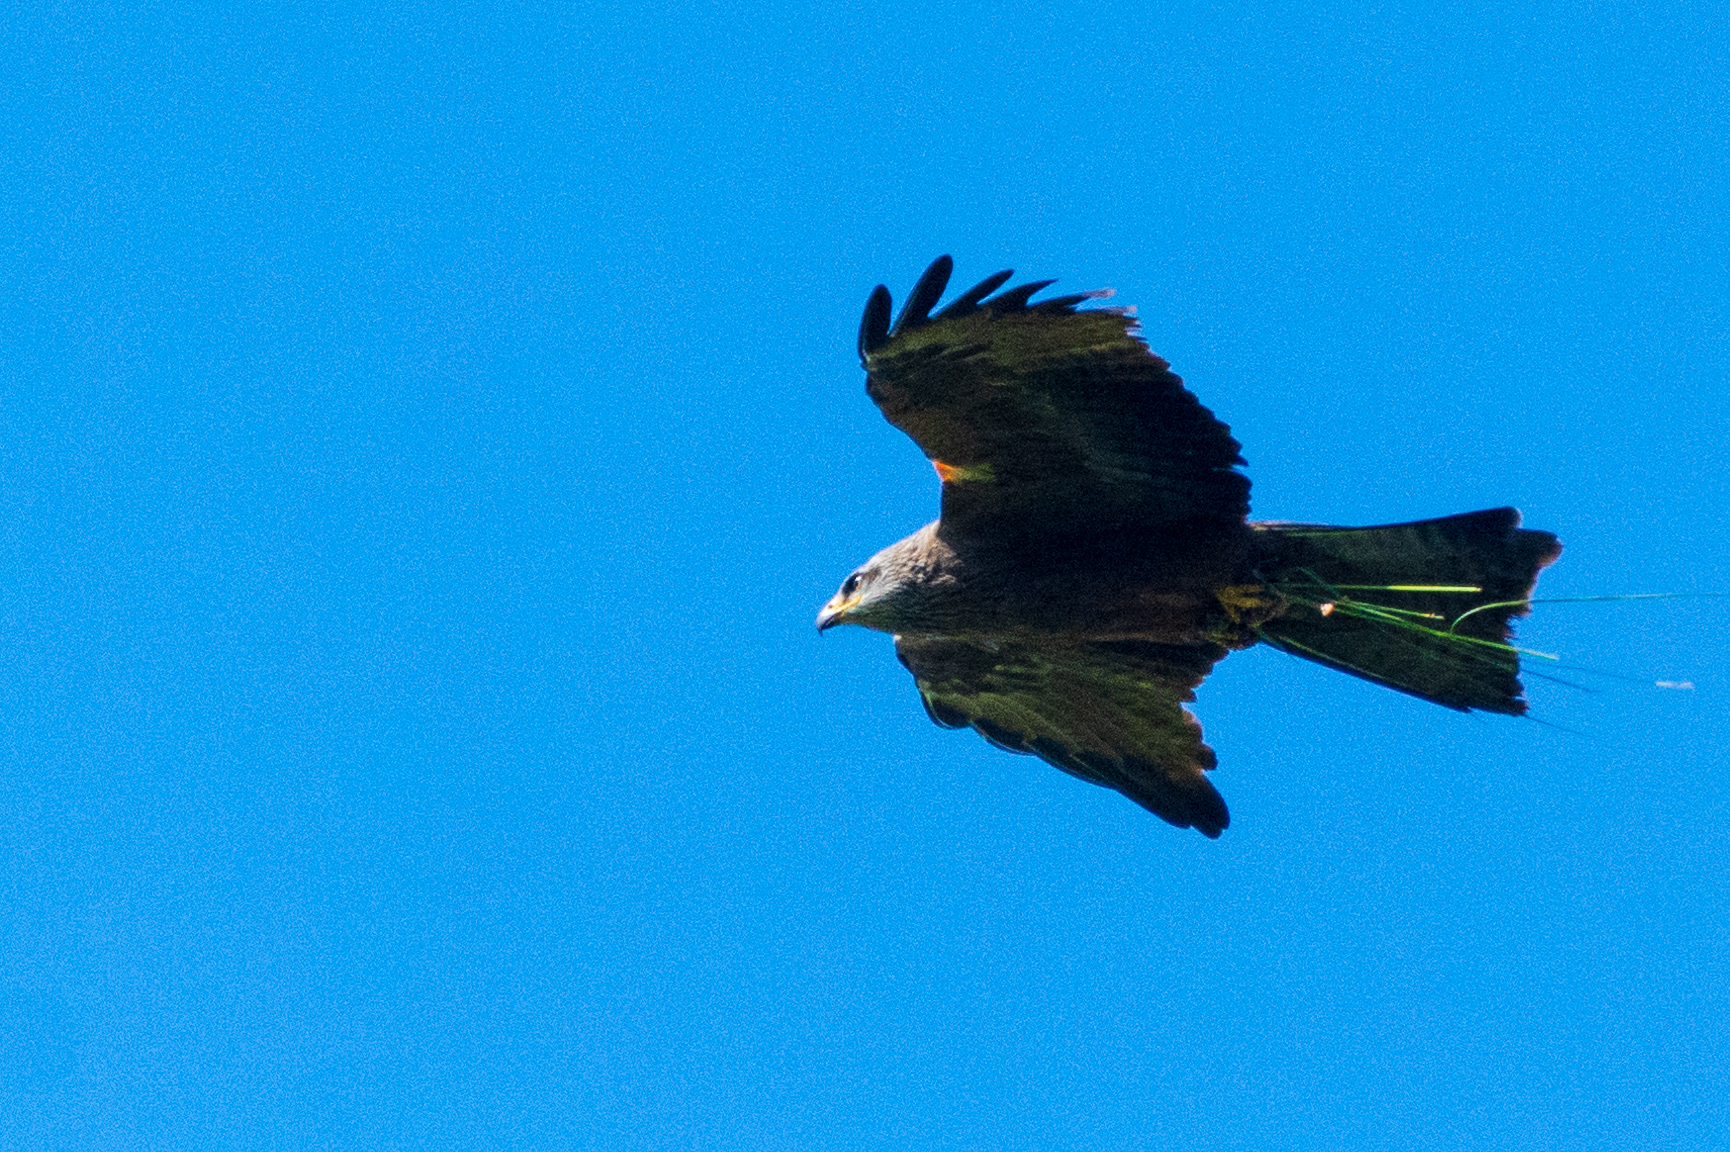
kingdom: Animalia
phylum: Chordata
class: Aves
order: Accipitriformes
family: Accipitridae
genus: Milvus
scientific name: Milvus migrans
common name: Black kite
